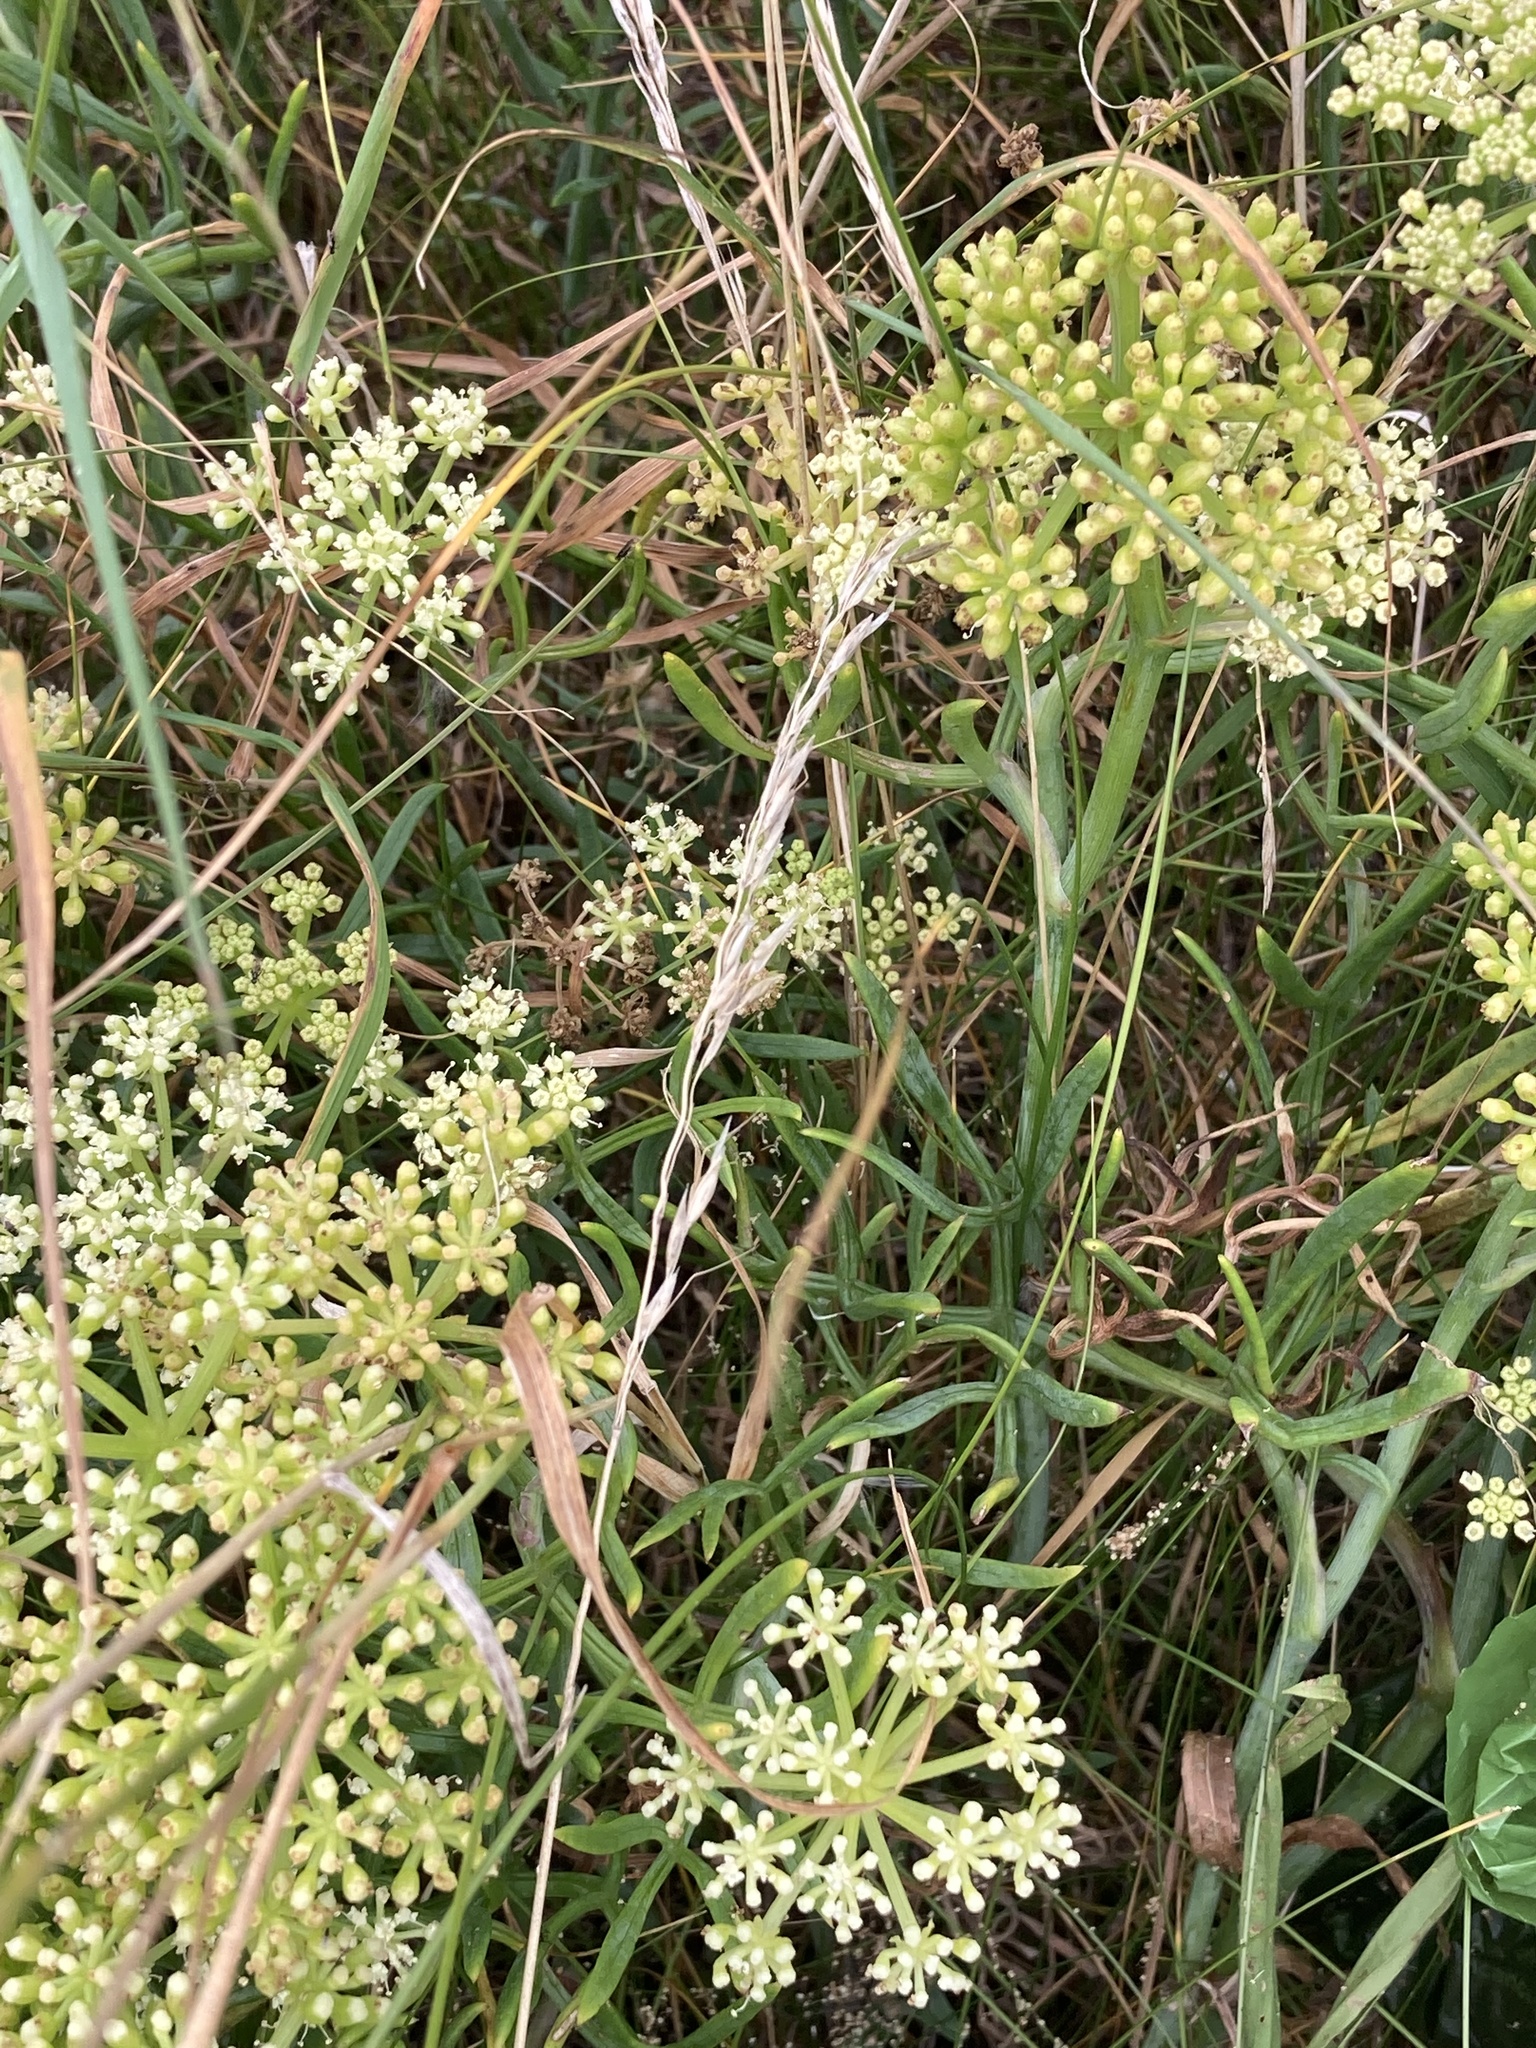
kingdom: Plantae
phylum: Tracheophyta
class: Magnoliopsida
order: Apiales
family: Apiaceae
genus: Crithmum
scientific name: Crithmum maritimum
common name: Rock samphire
